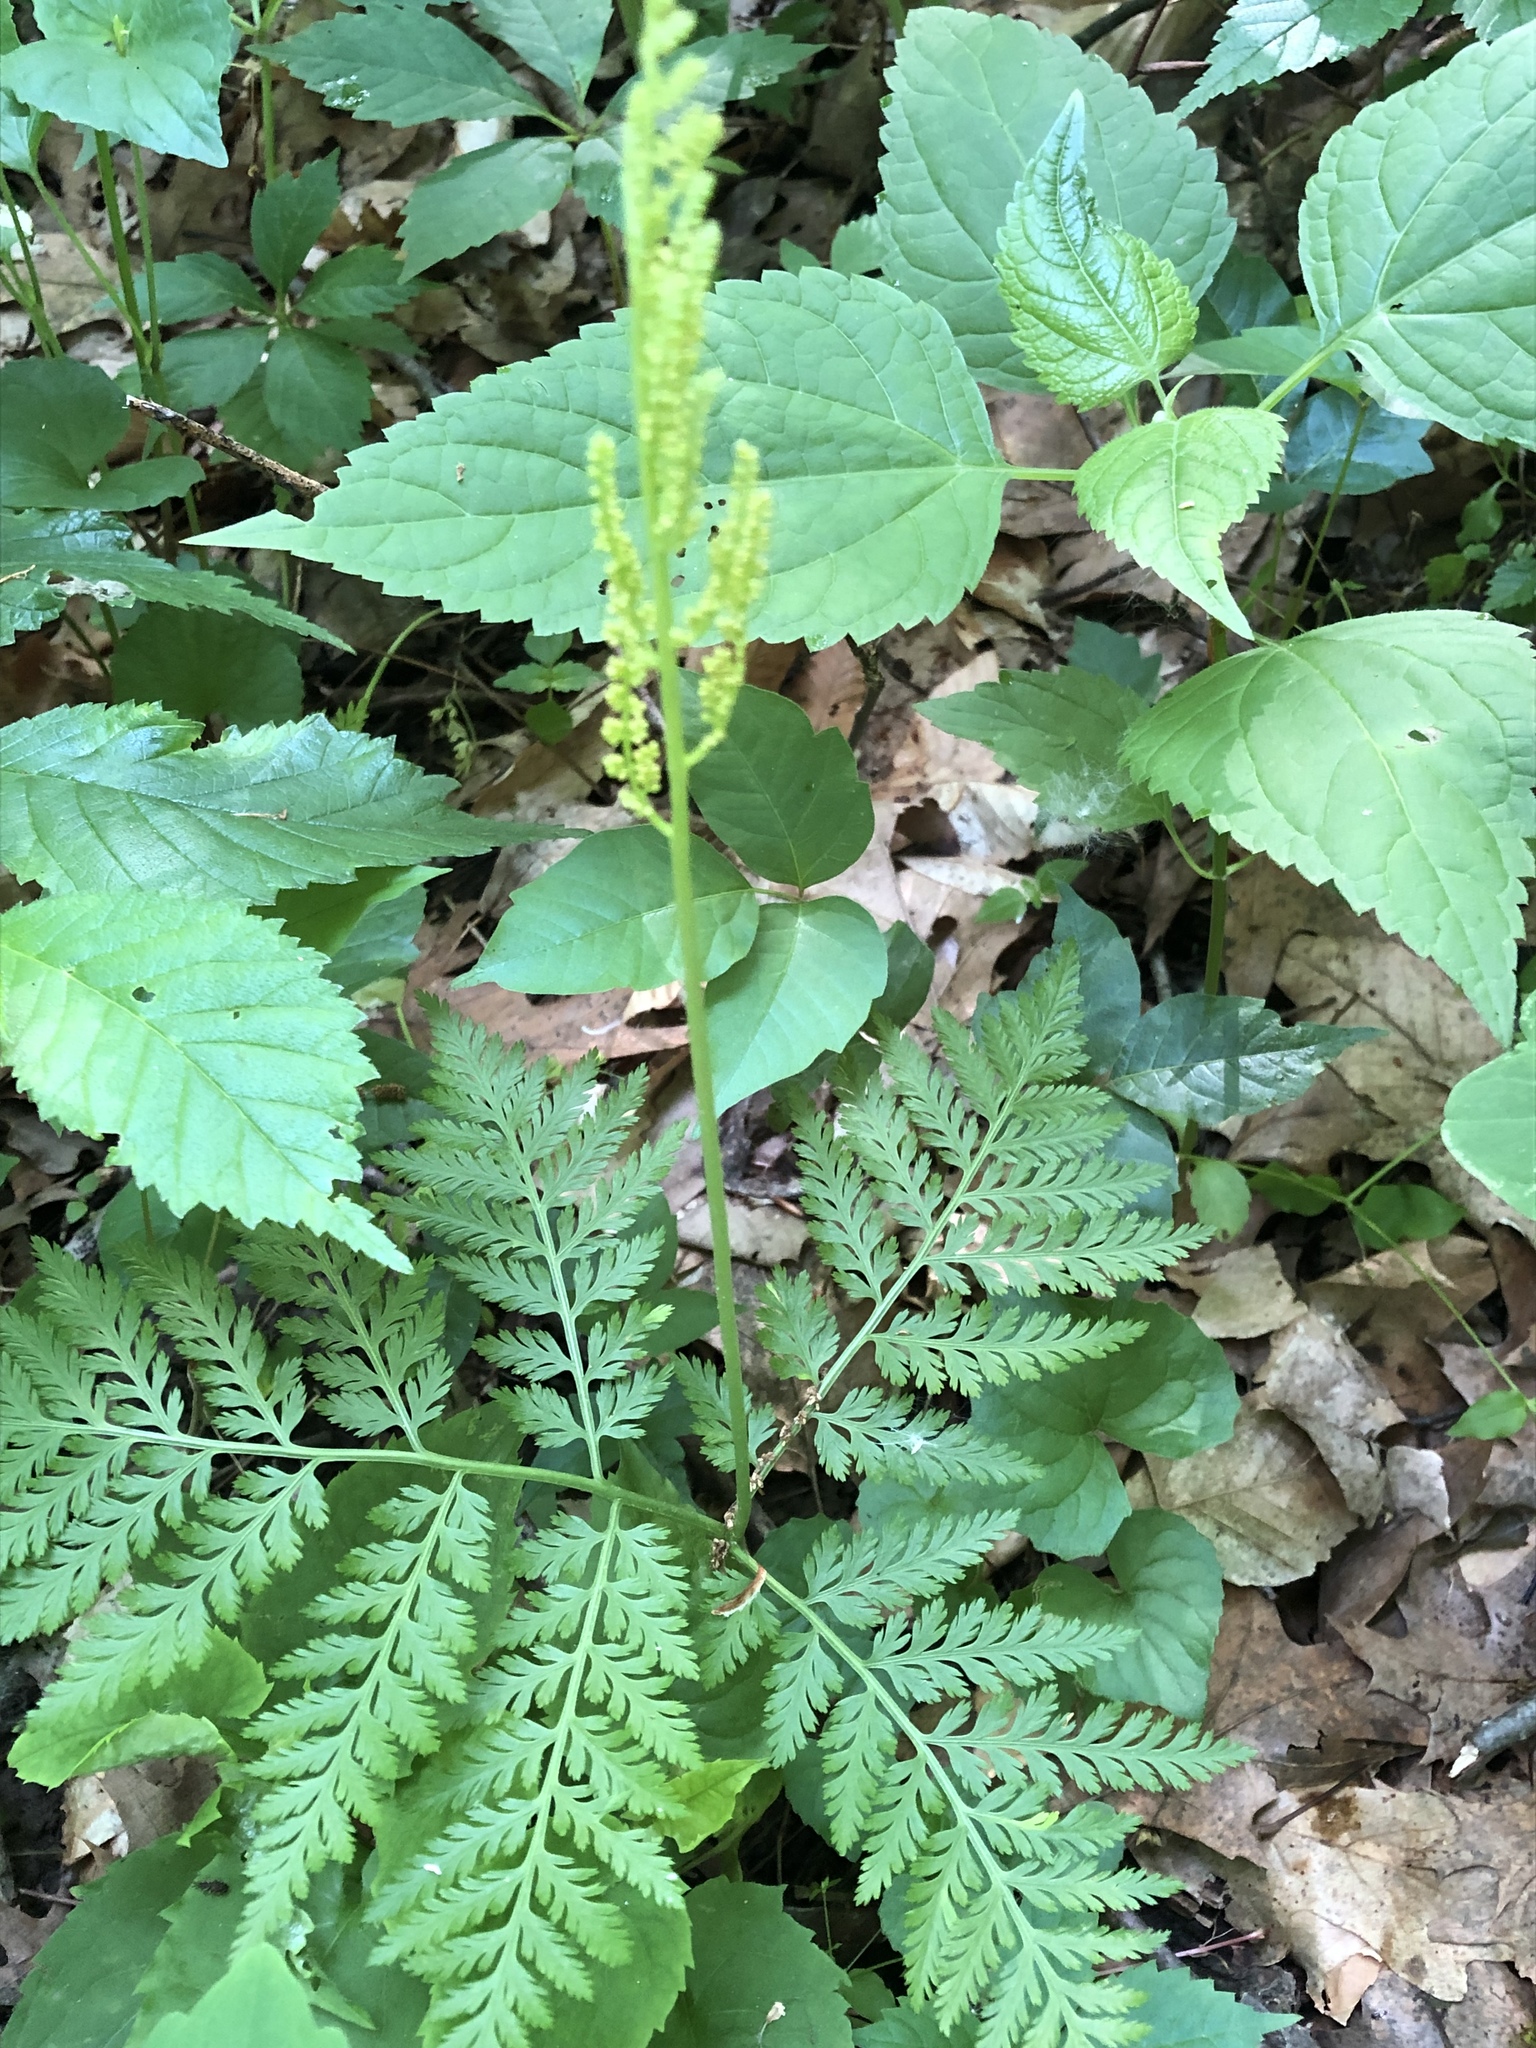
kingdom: Plantae
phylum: Tracheophyta
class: Polypodiopsida
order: Ophioglossales
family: Ophioglossaceae
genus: Botrypus
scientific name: Botrypus virginianus
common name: Common grapefern
